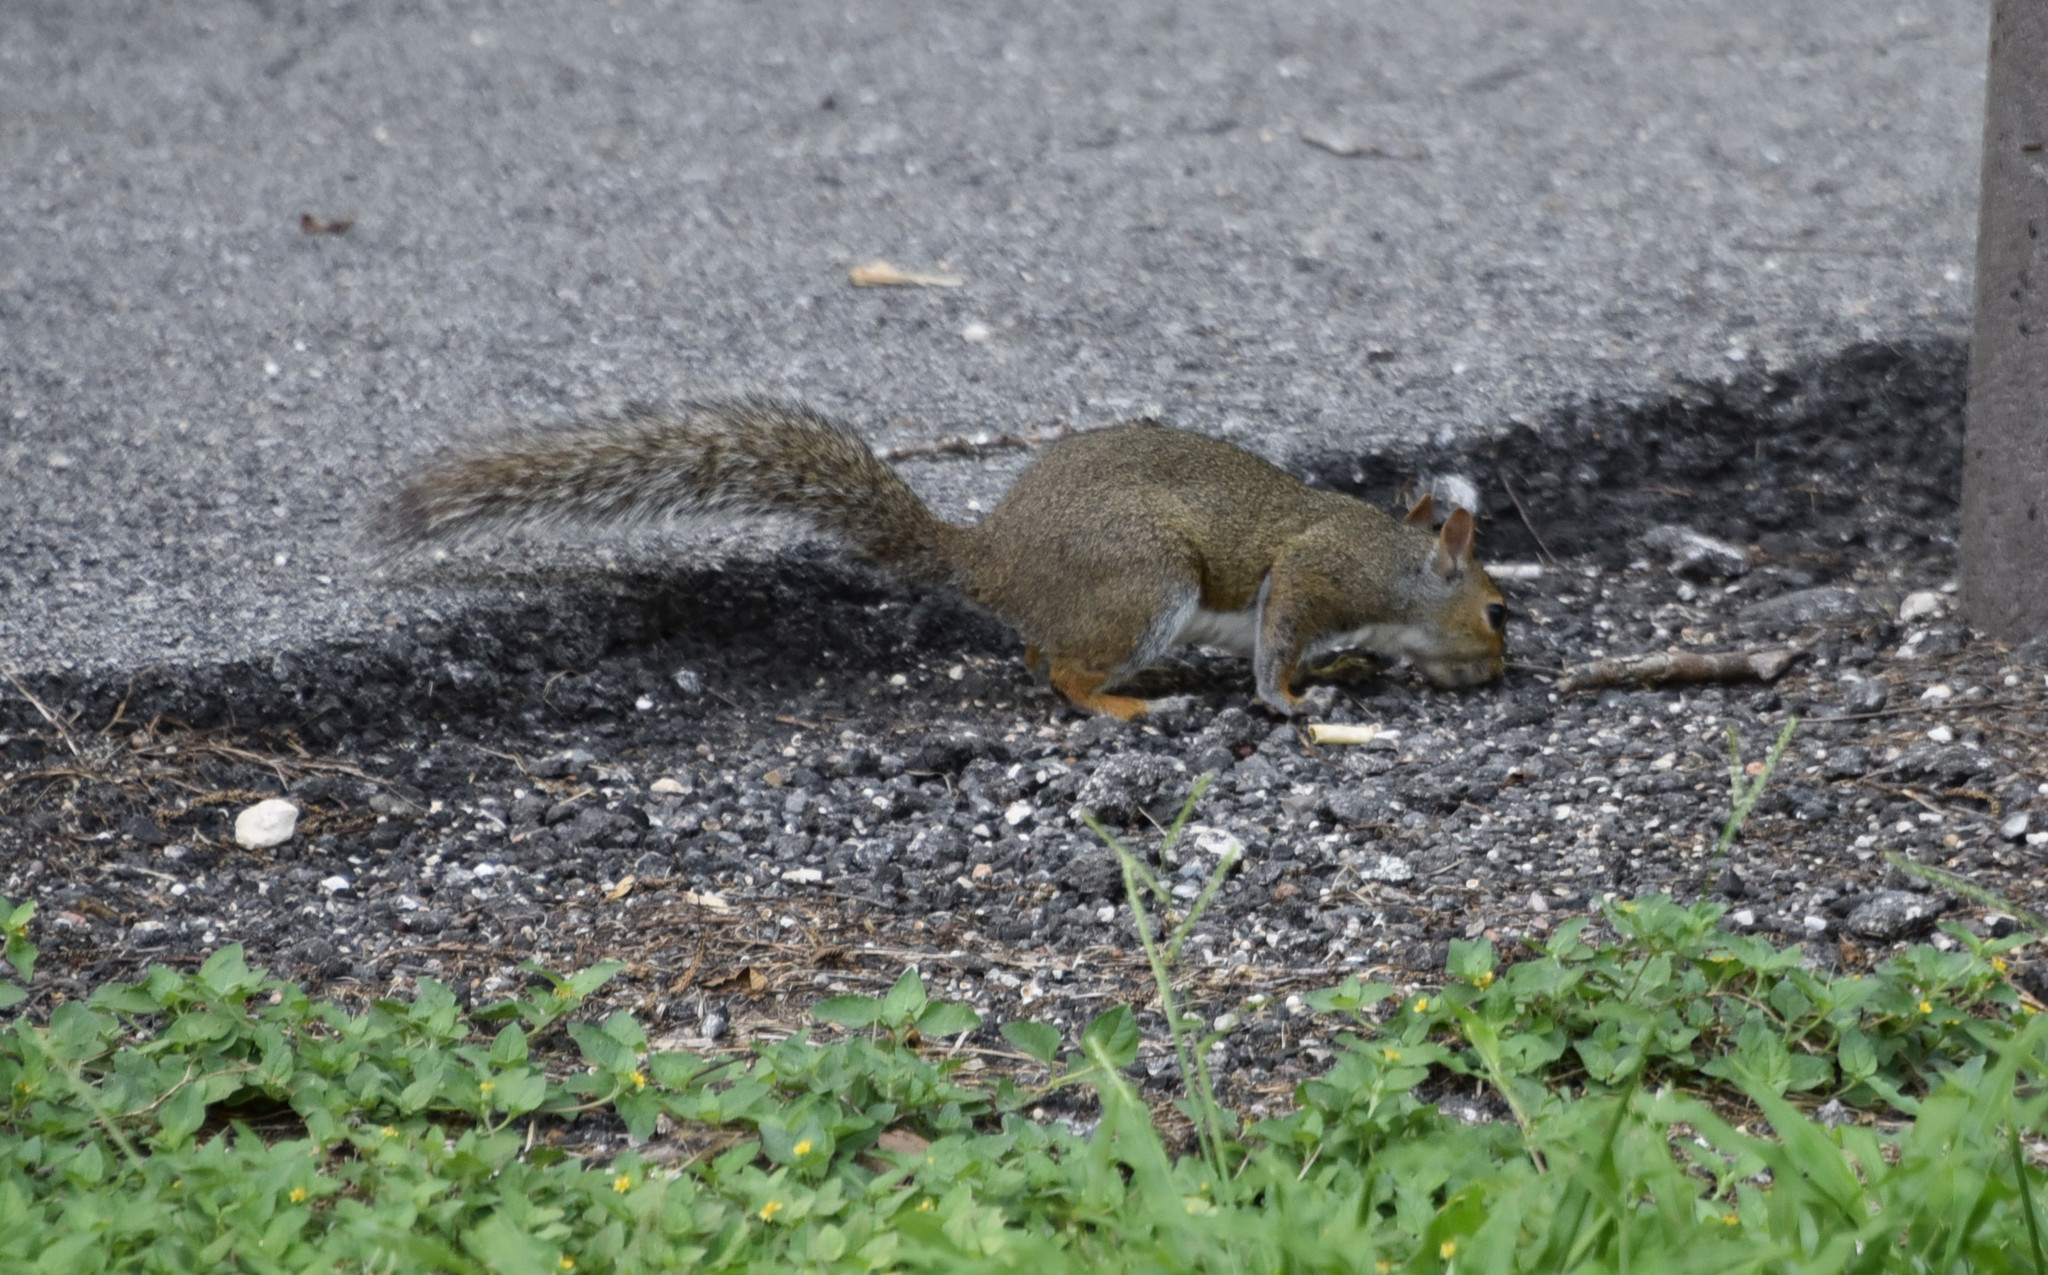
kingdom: Animalia
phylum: Chordata
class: Mammalia
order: Rodentia
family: Sciuridae
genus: Sciurus
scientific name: Sciurus carolinensis
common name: Eastern gray squirrel
